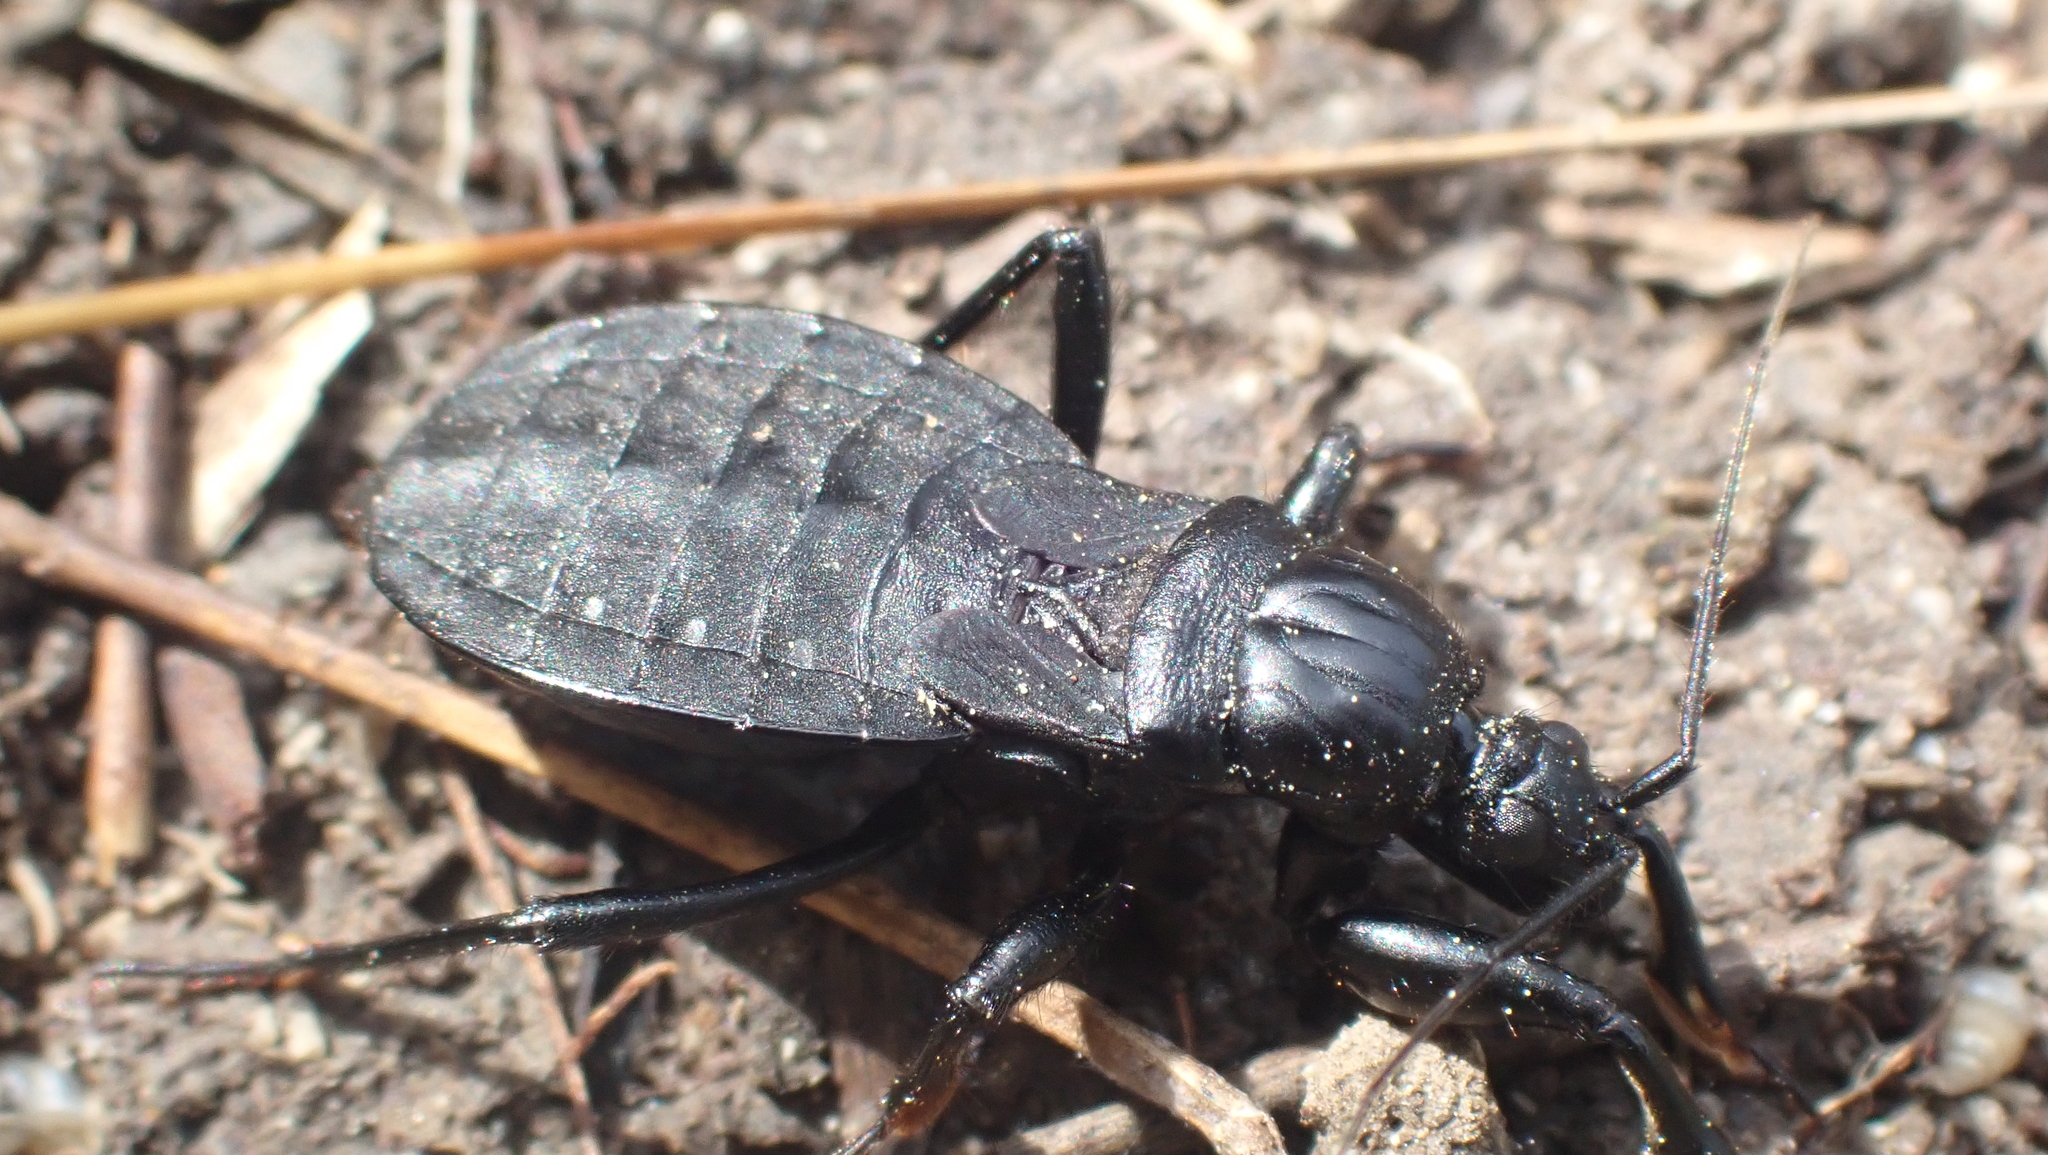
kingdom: Animalia
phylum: Arthropoda
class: Insecta
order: Hemiptera
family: Reduviidae
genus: Melanolestes
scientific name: Melanolestes picipes
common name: Assassin bug
